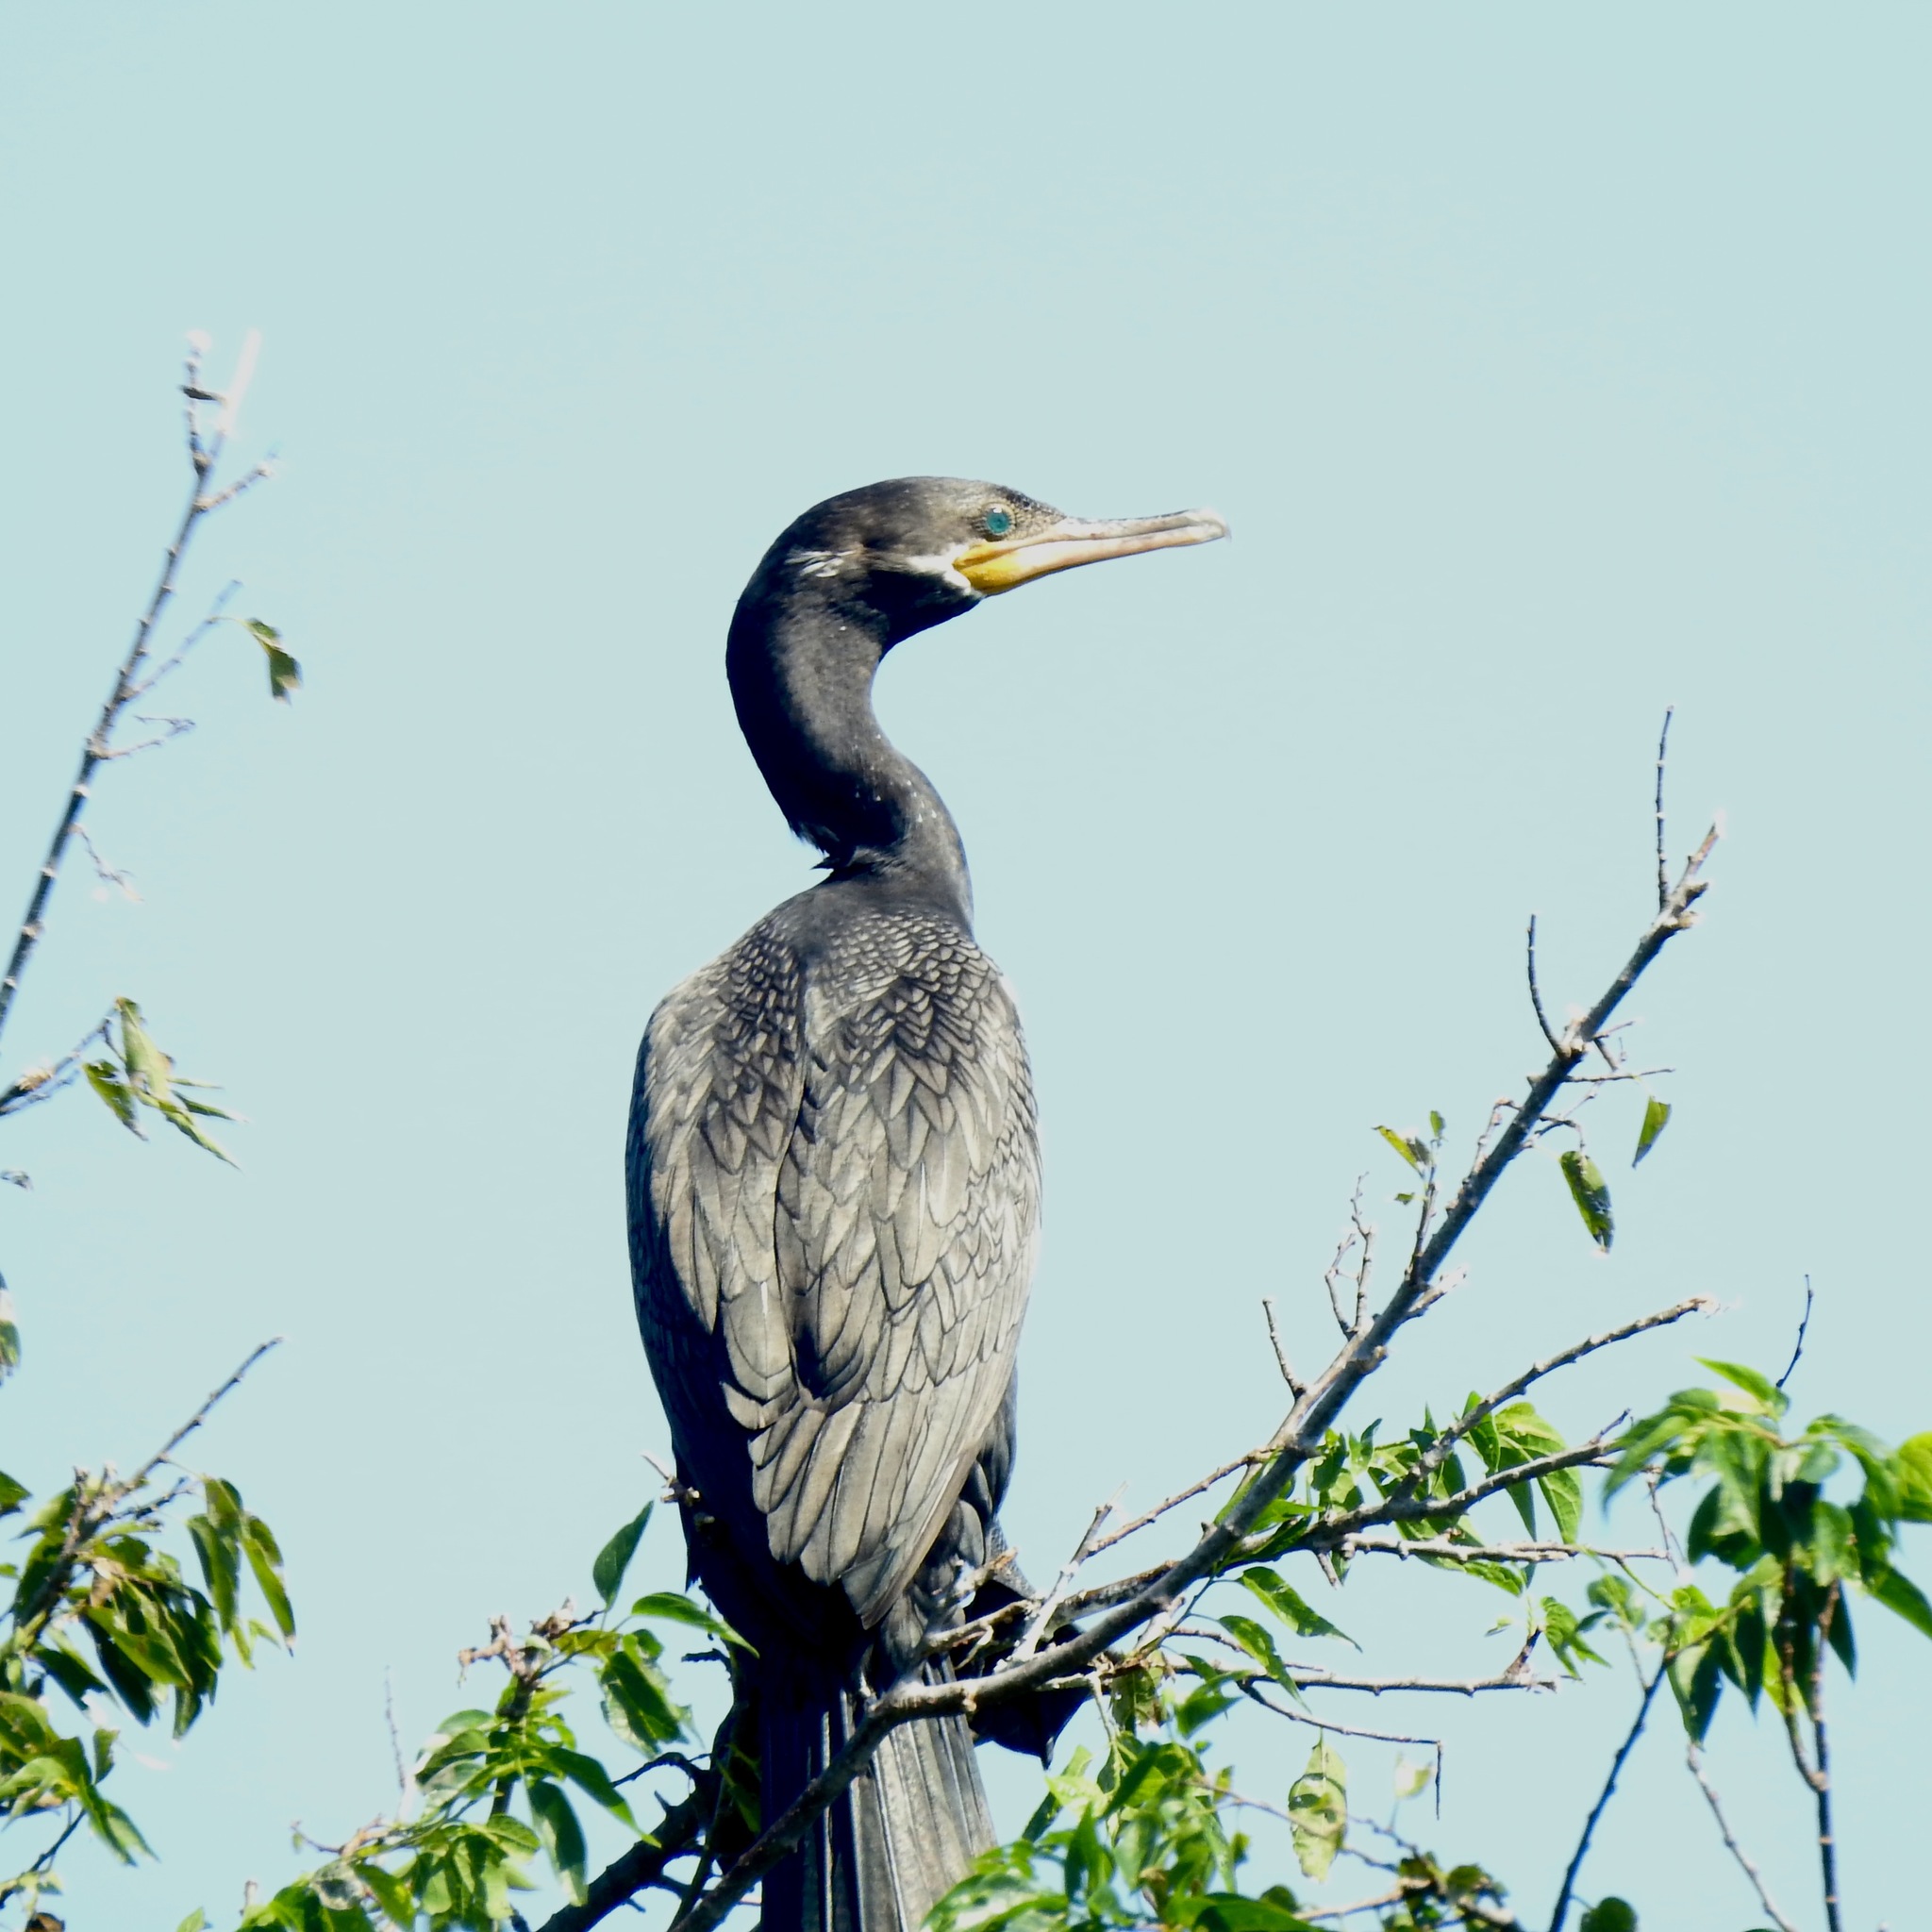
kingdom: Animalia
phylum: Chordata
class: Aves
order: Suliformes
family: Phalacrocoracidae
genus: Phalacrocorax
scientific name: Phalacrocorax brasilianus
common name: Neotropic cormorant
